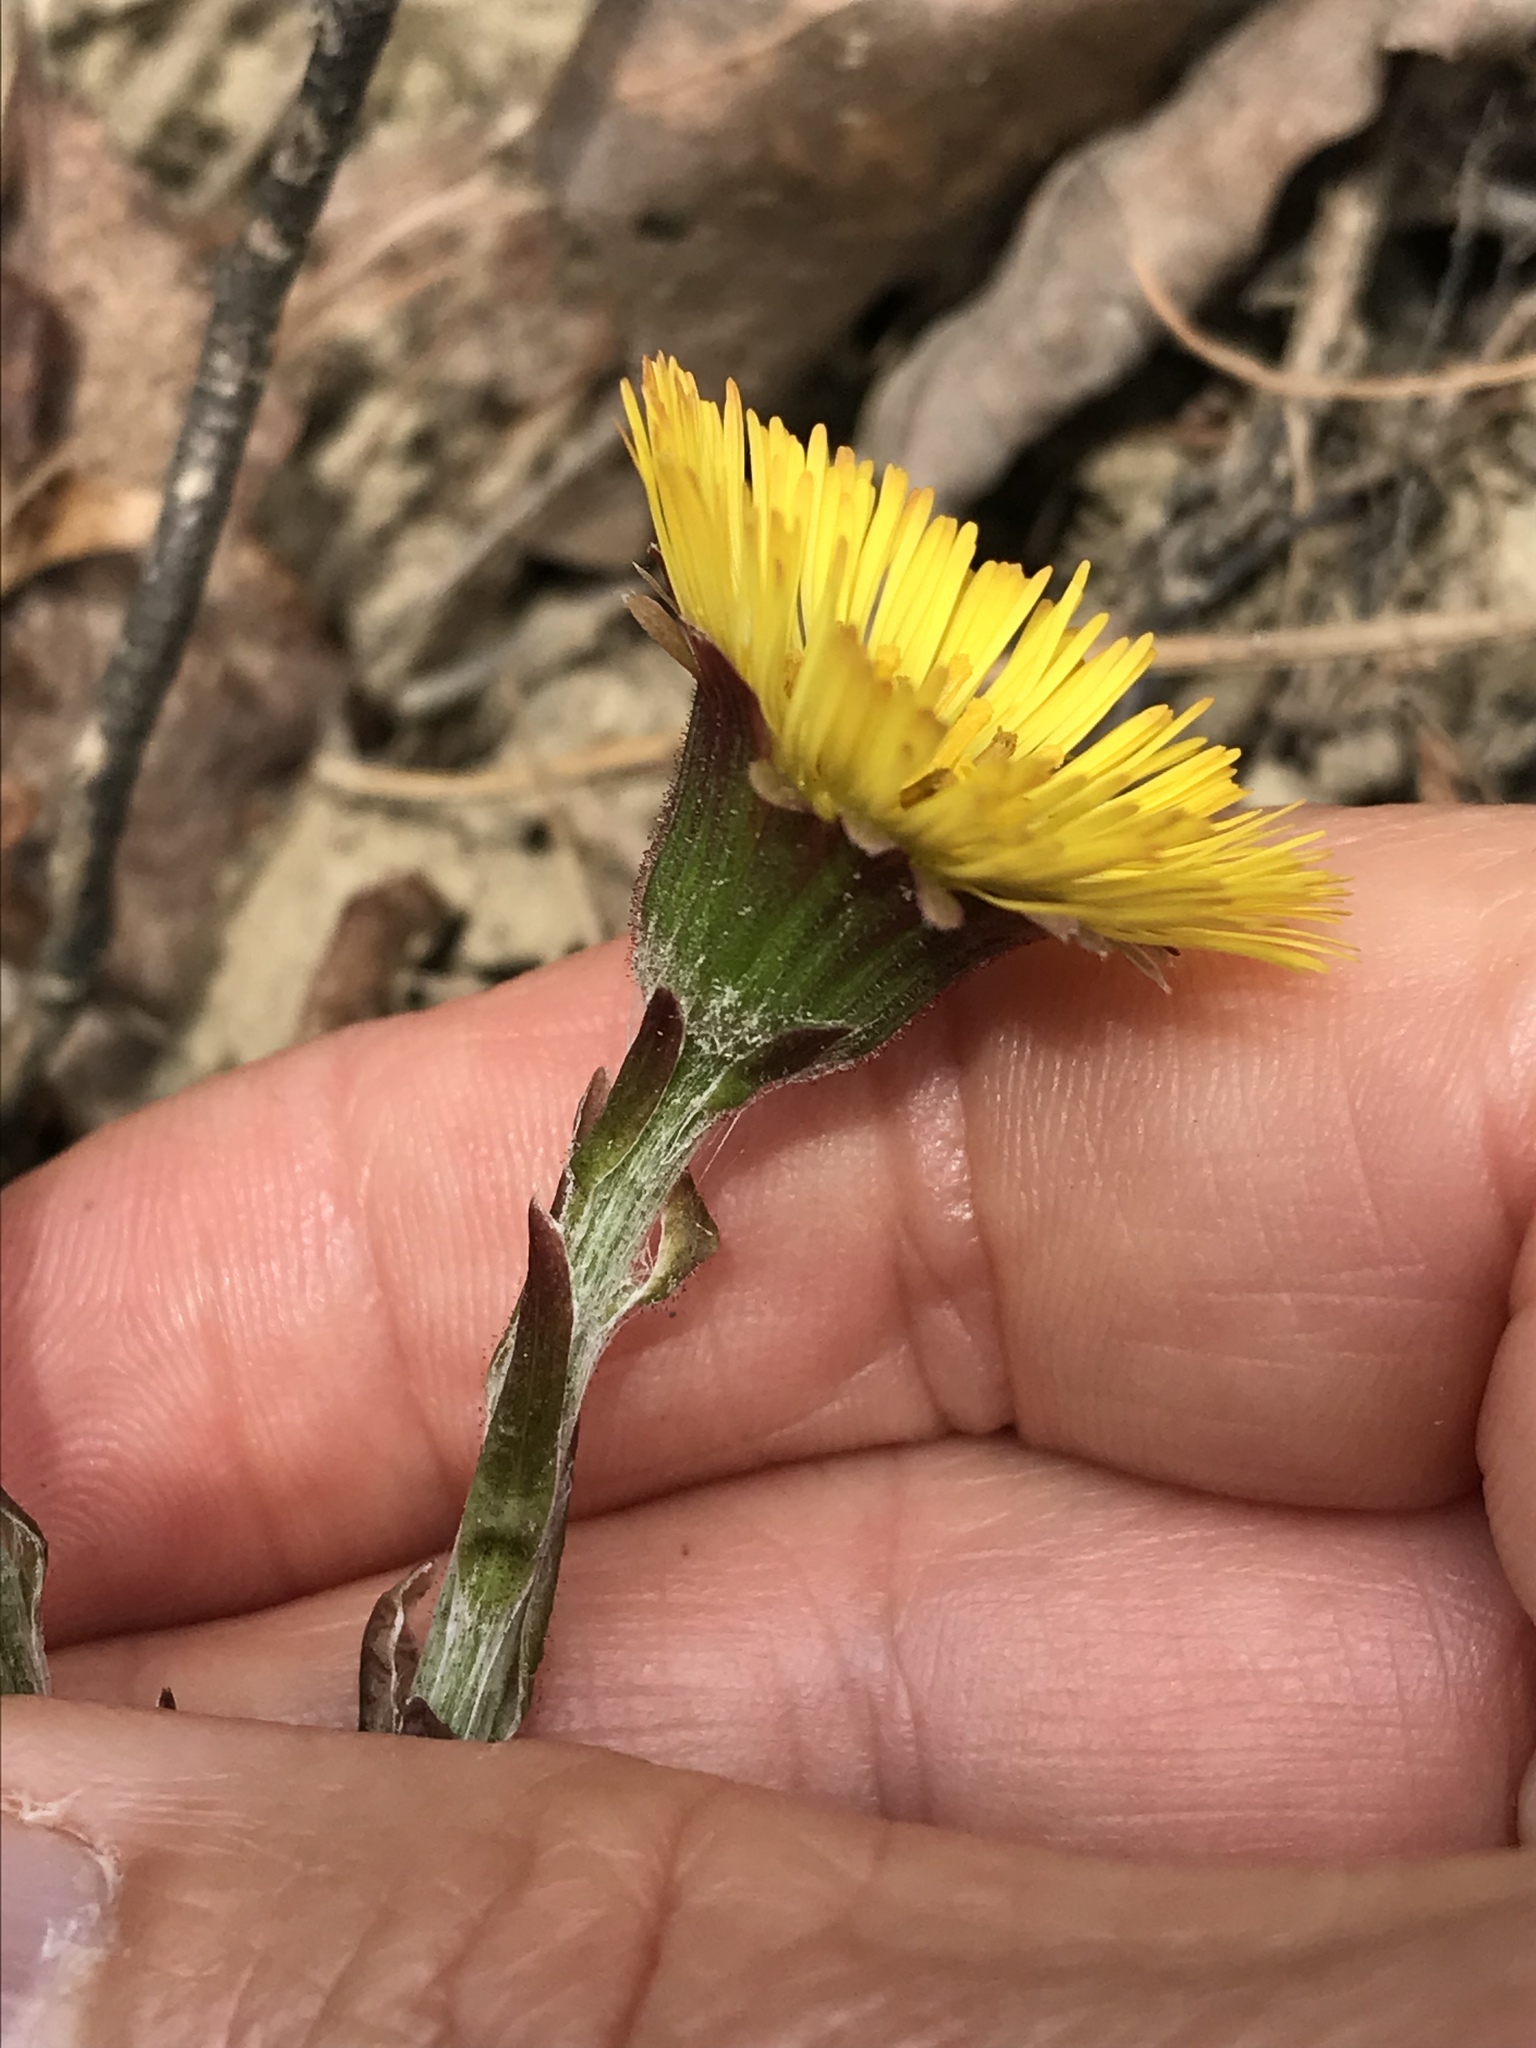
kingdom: Plantae
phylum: Tracheophyta
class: Magnoliopsida
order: Asterales
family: Asteraceae
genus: Tussilago
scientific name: Tussilago farfara
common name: Coltsfoot
